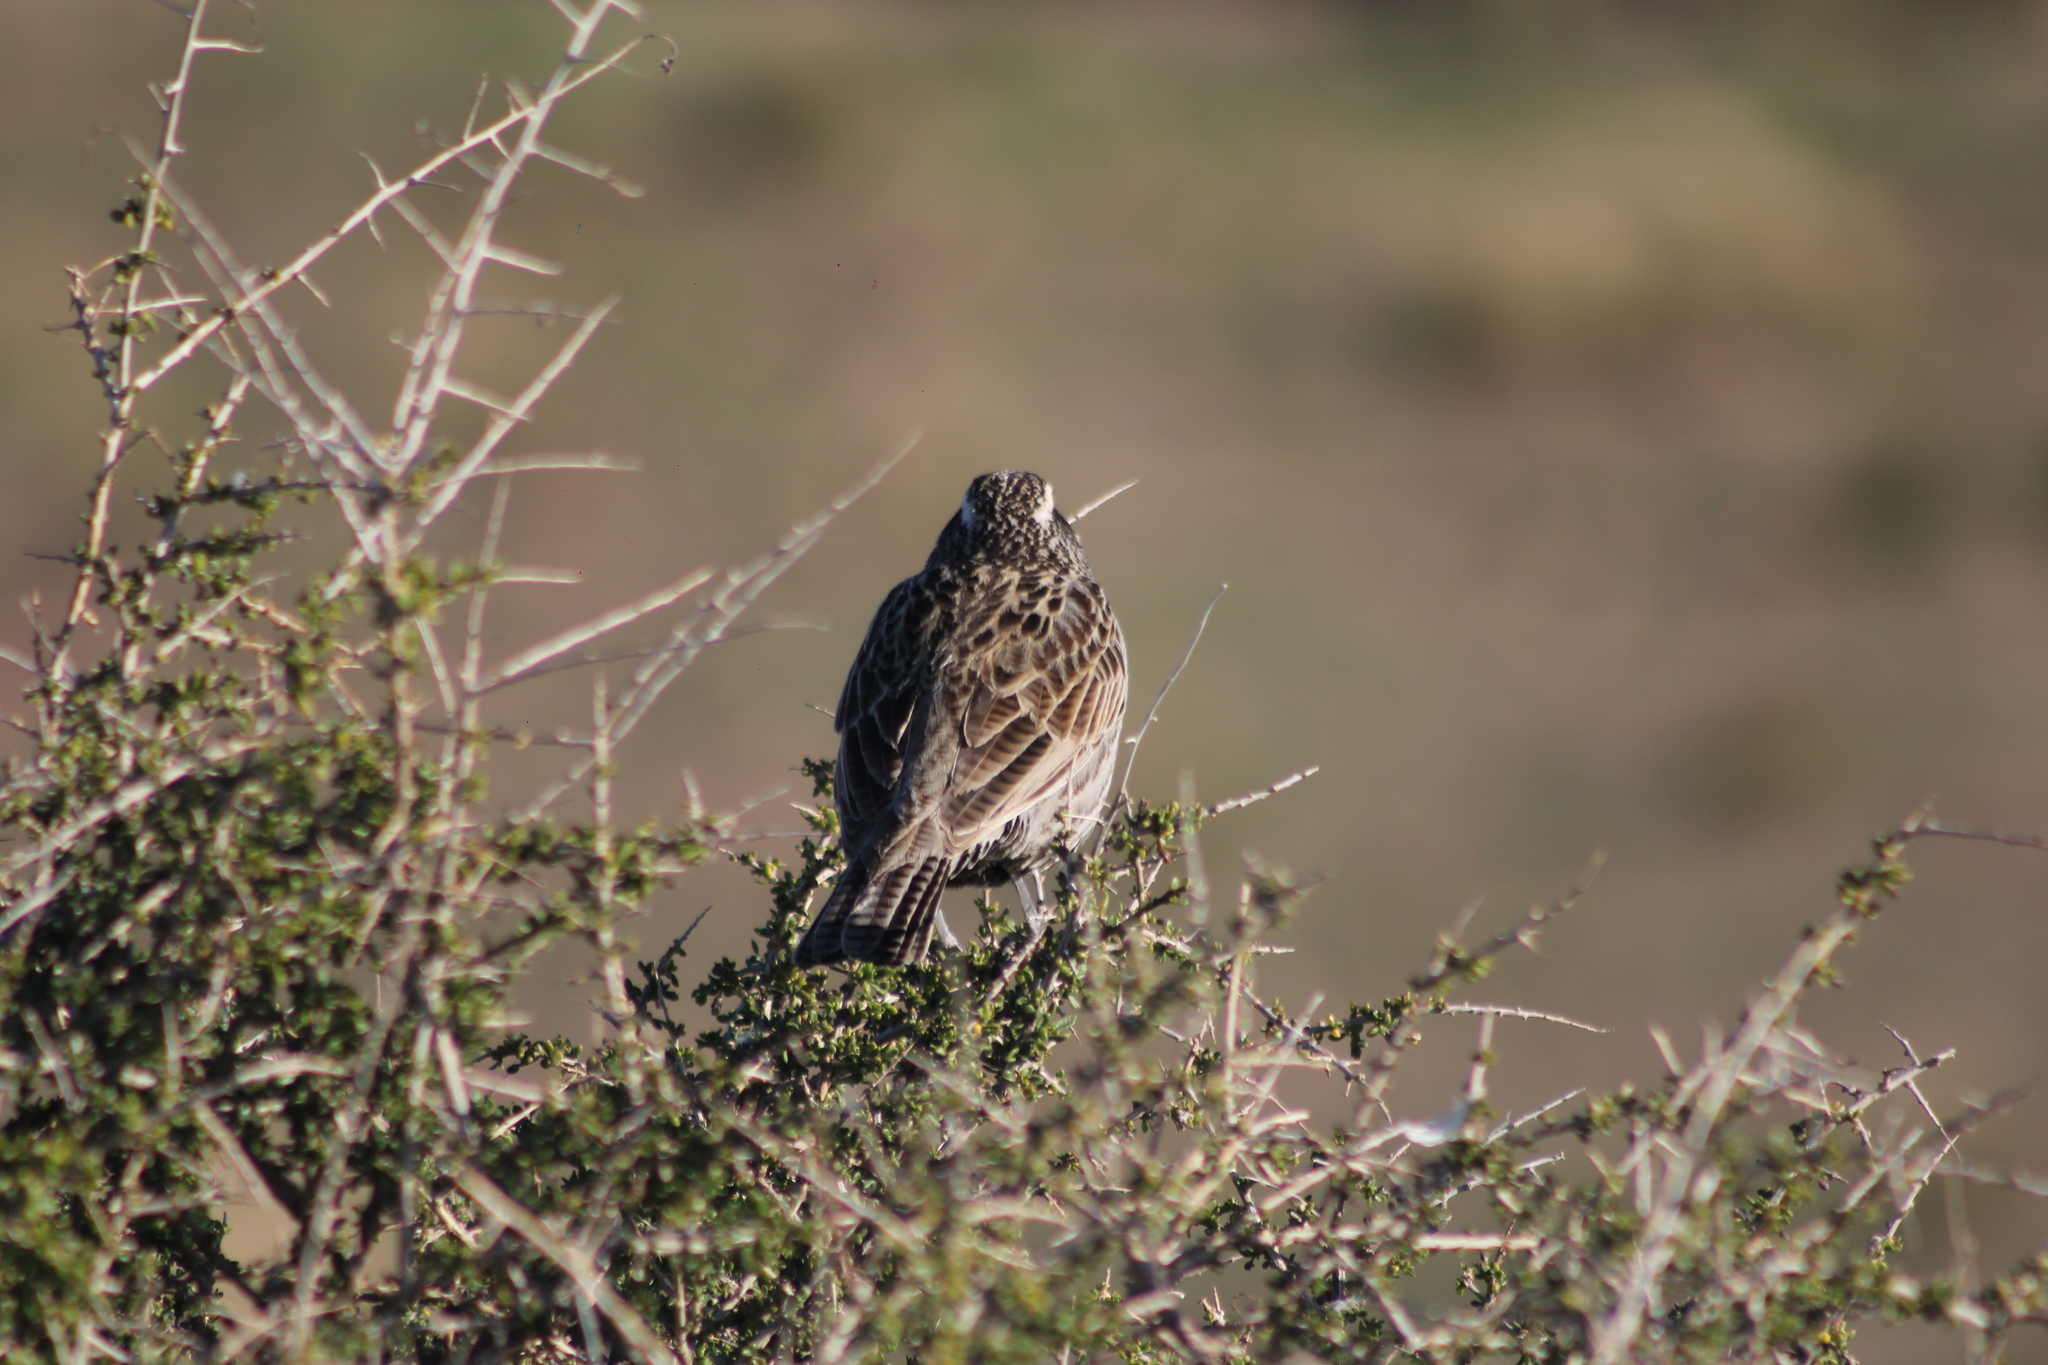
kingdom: Animalia
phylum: Chordata
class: Aves
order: Passeriformes
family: Icteridae
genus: Sturnella
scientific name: Sturnella loyca
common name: Long-tailed meadowlark
